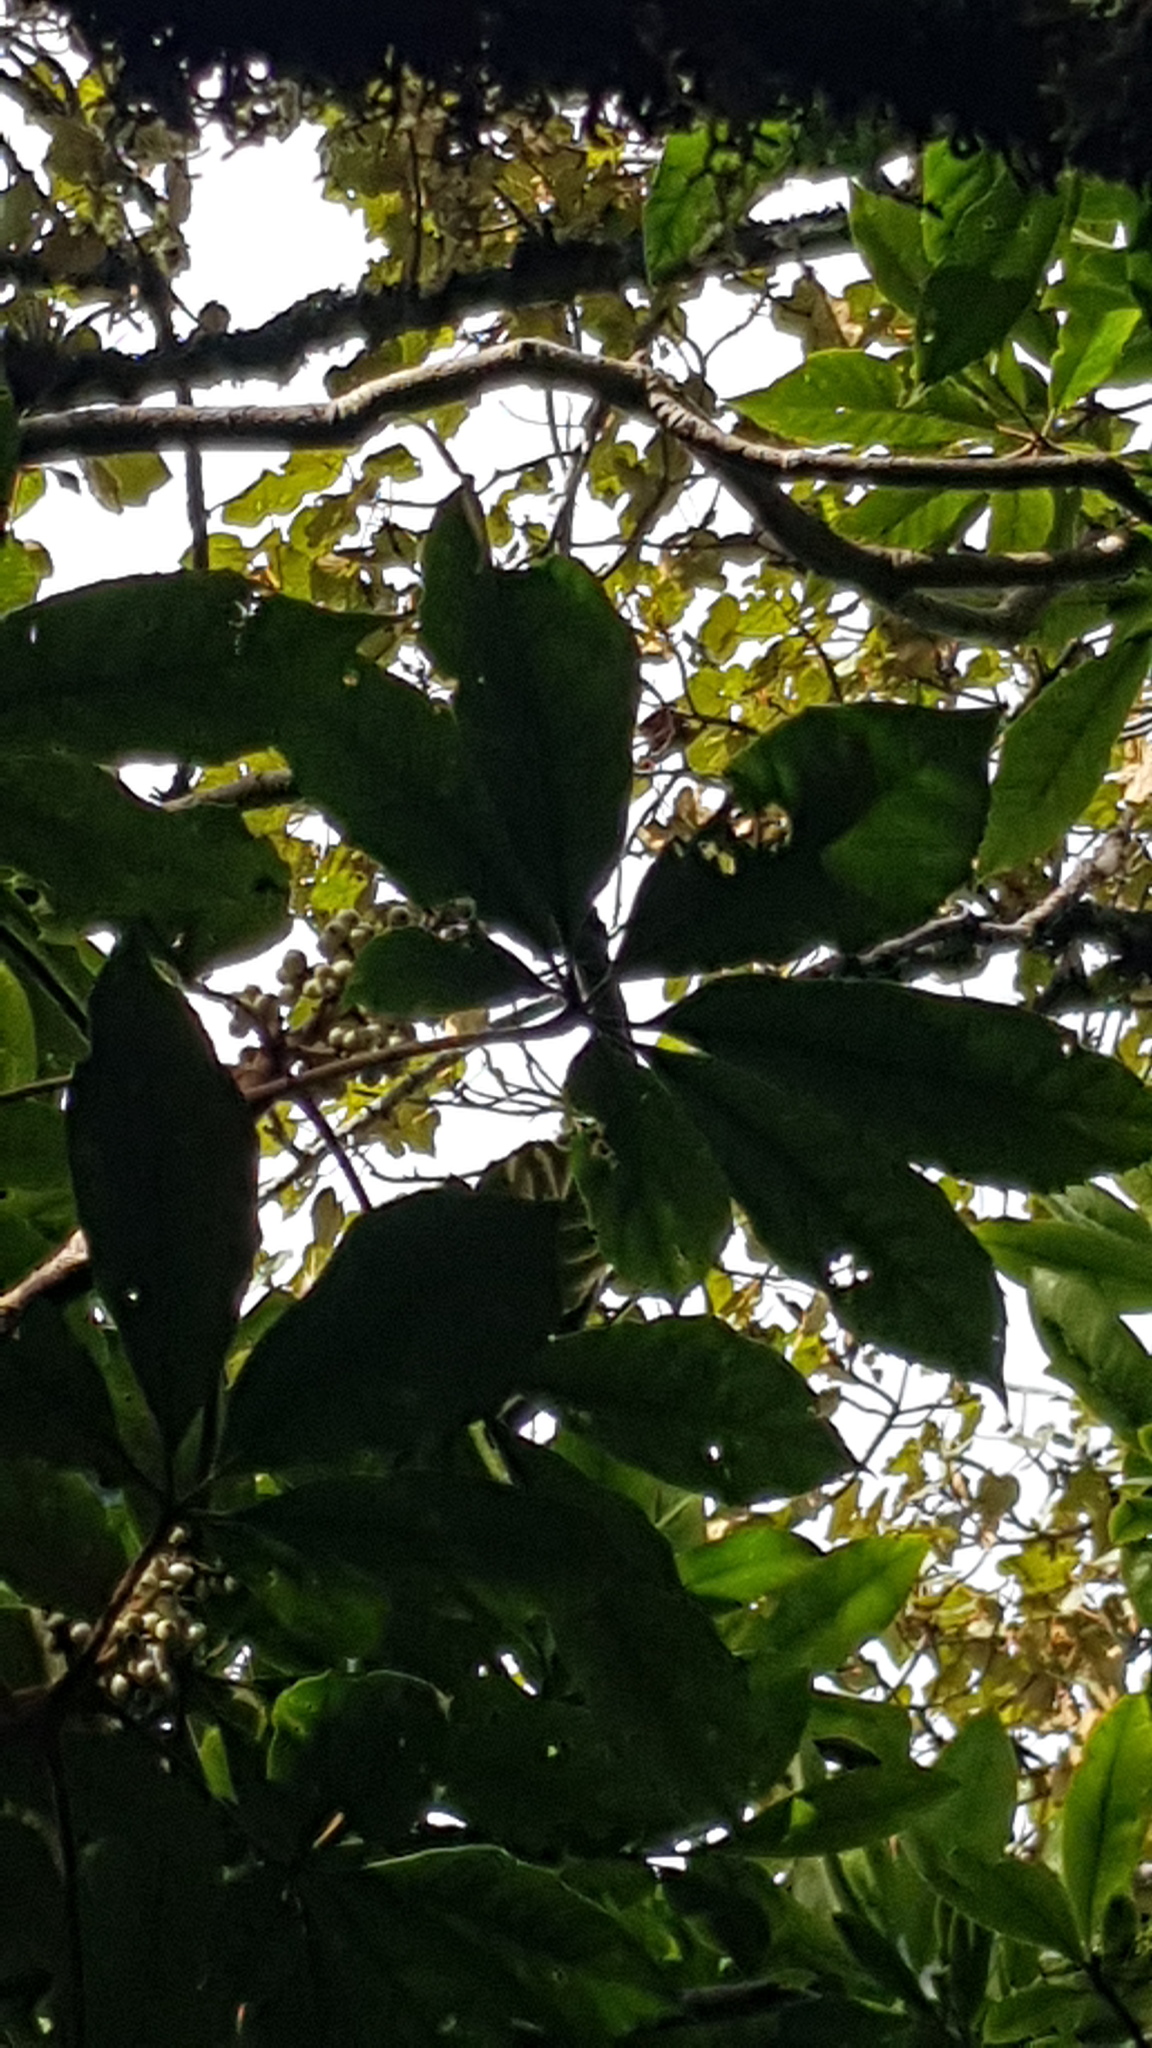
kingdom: Plantae
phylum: Tracheophyta
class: Magnoliopsida
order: Apiales
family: Araliaceae
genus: Oreopanax
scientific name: Oreopanax xalapensis
